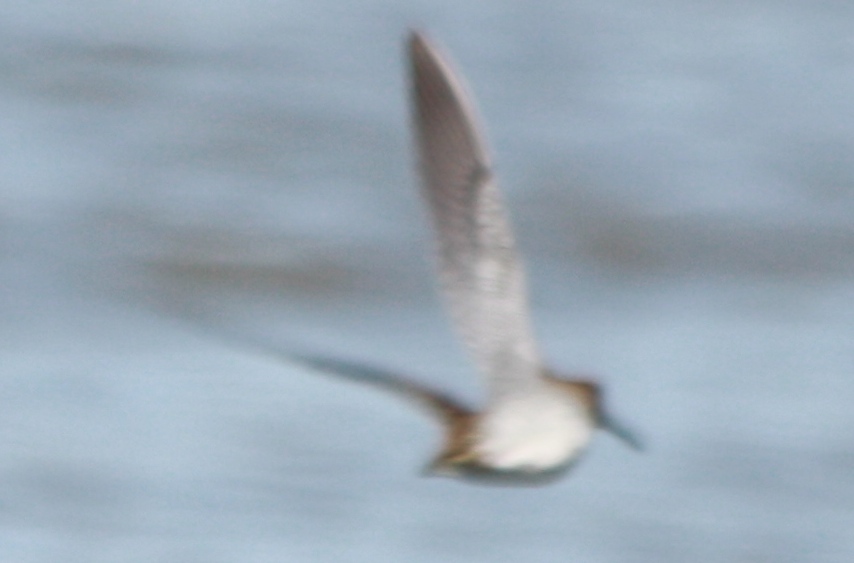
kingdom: Animalia
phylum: Chordata
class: Aves
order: Charadriiformes
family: Scolopacidae
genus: Gallinago
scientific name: Gallinago delicata
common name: Wilson's snipe
